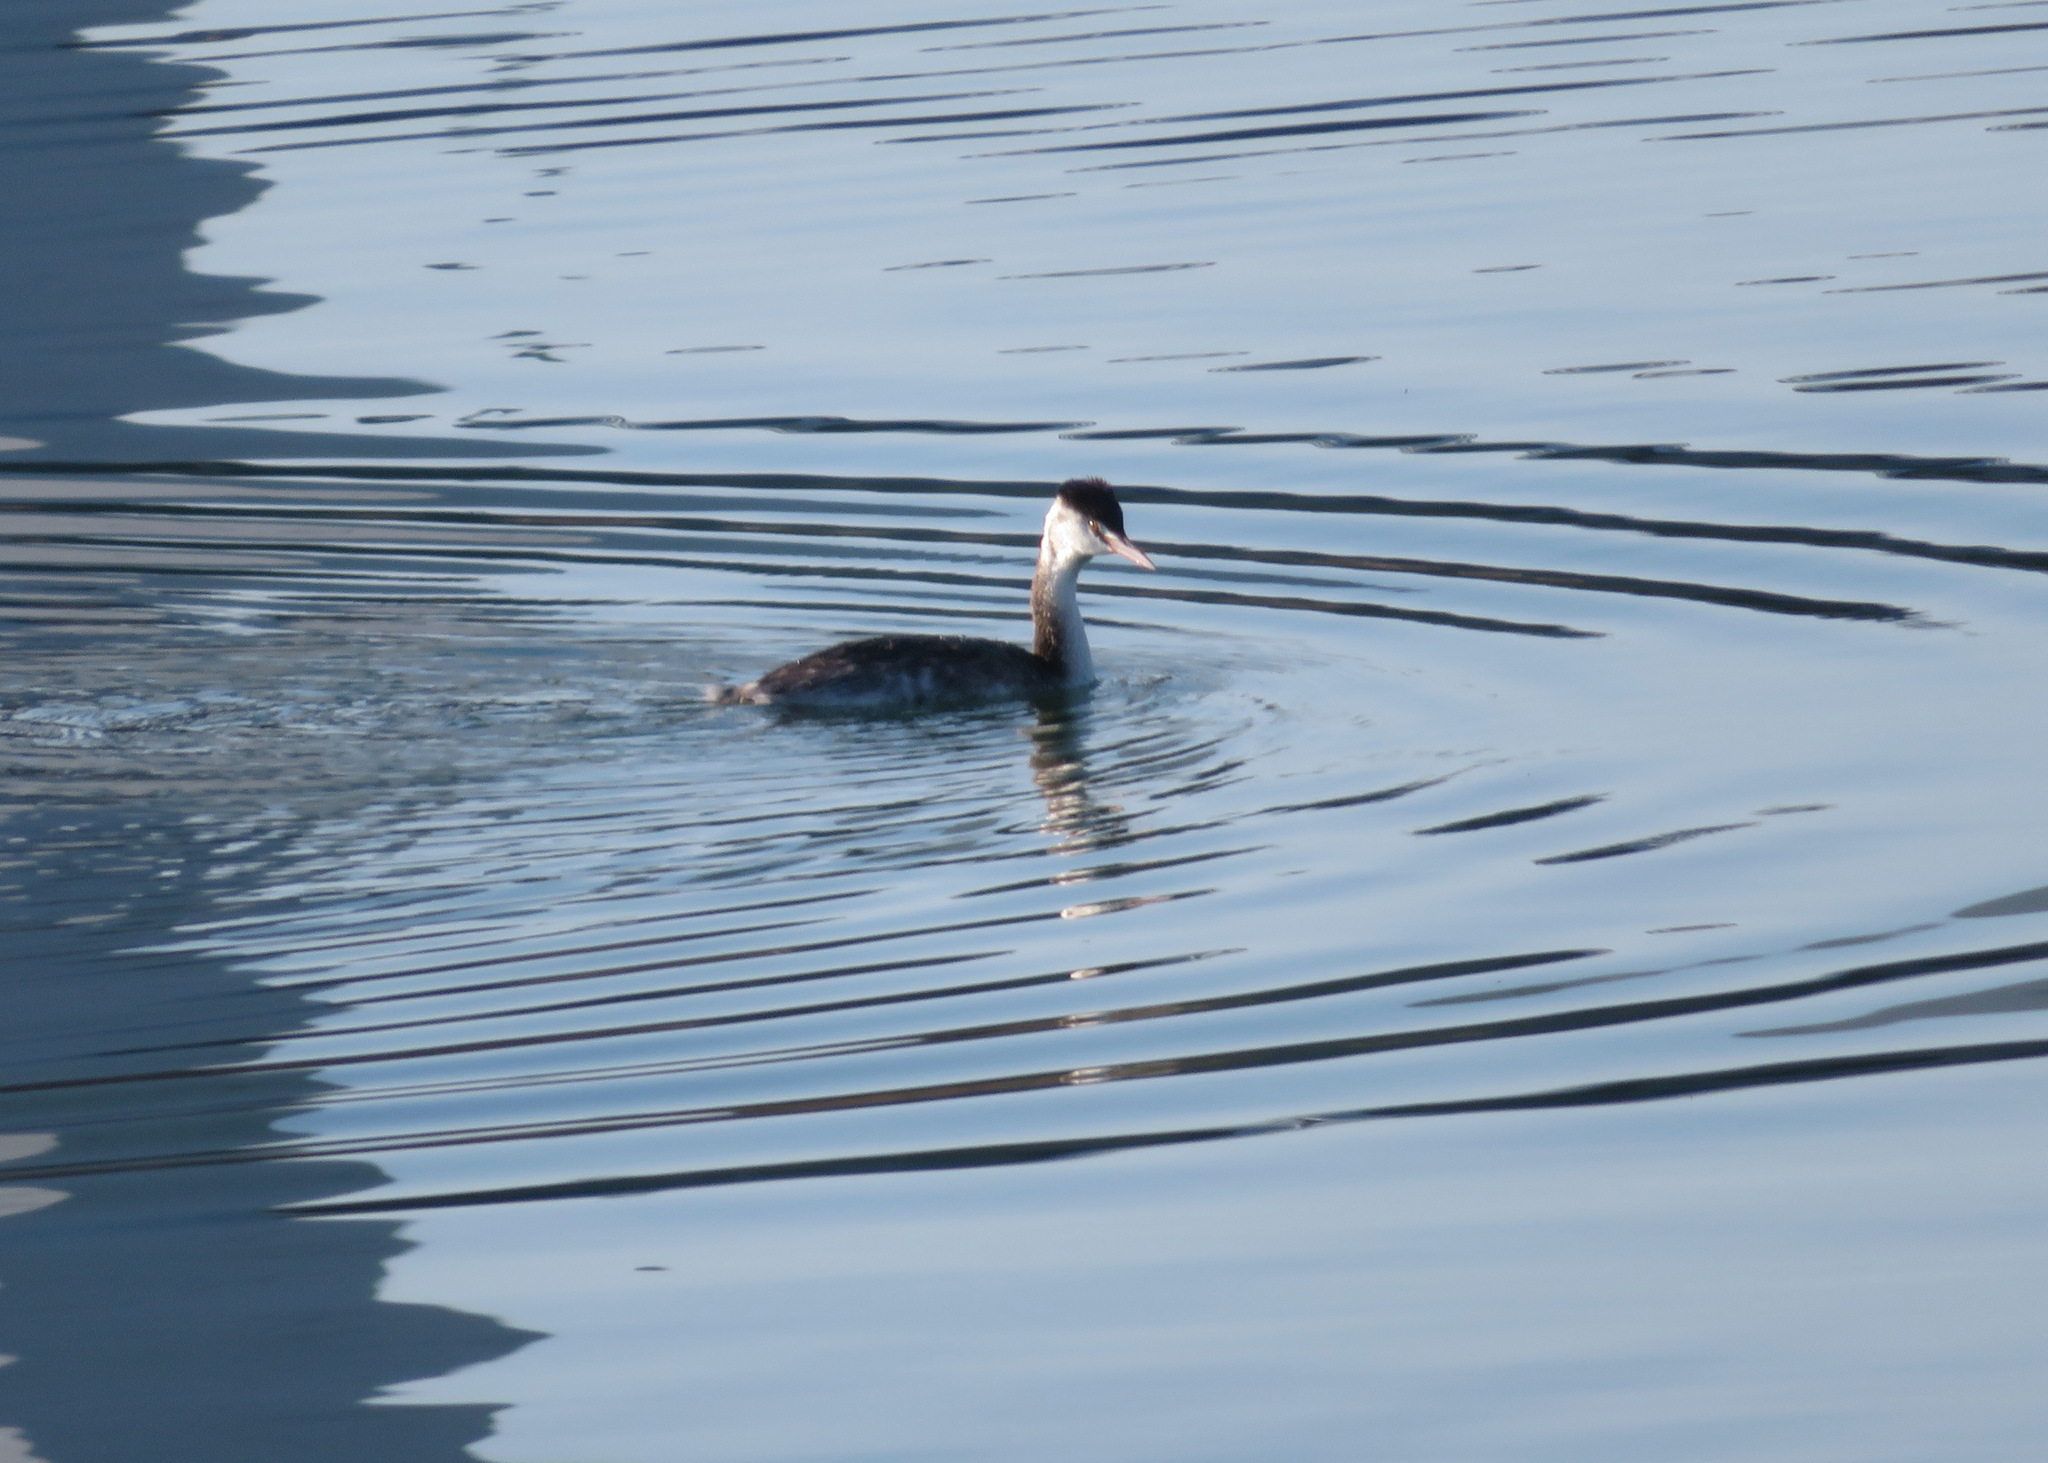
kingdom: Animalia
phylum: Chordata
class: Aves
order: Podicipediformes
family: Podicipedidae
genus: Podiceps
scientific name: Podiceps cristatus
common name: Great crested grebe
